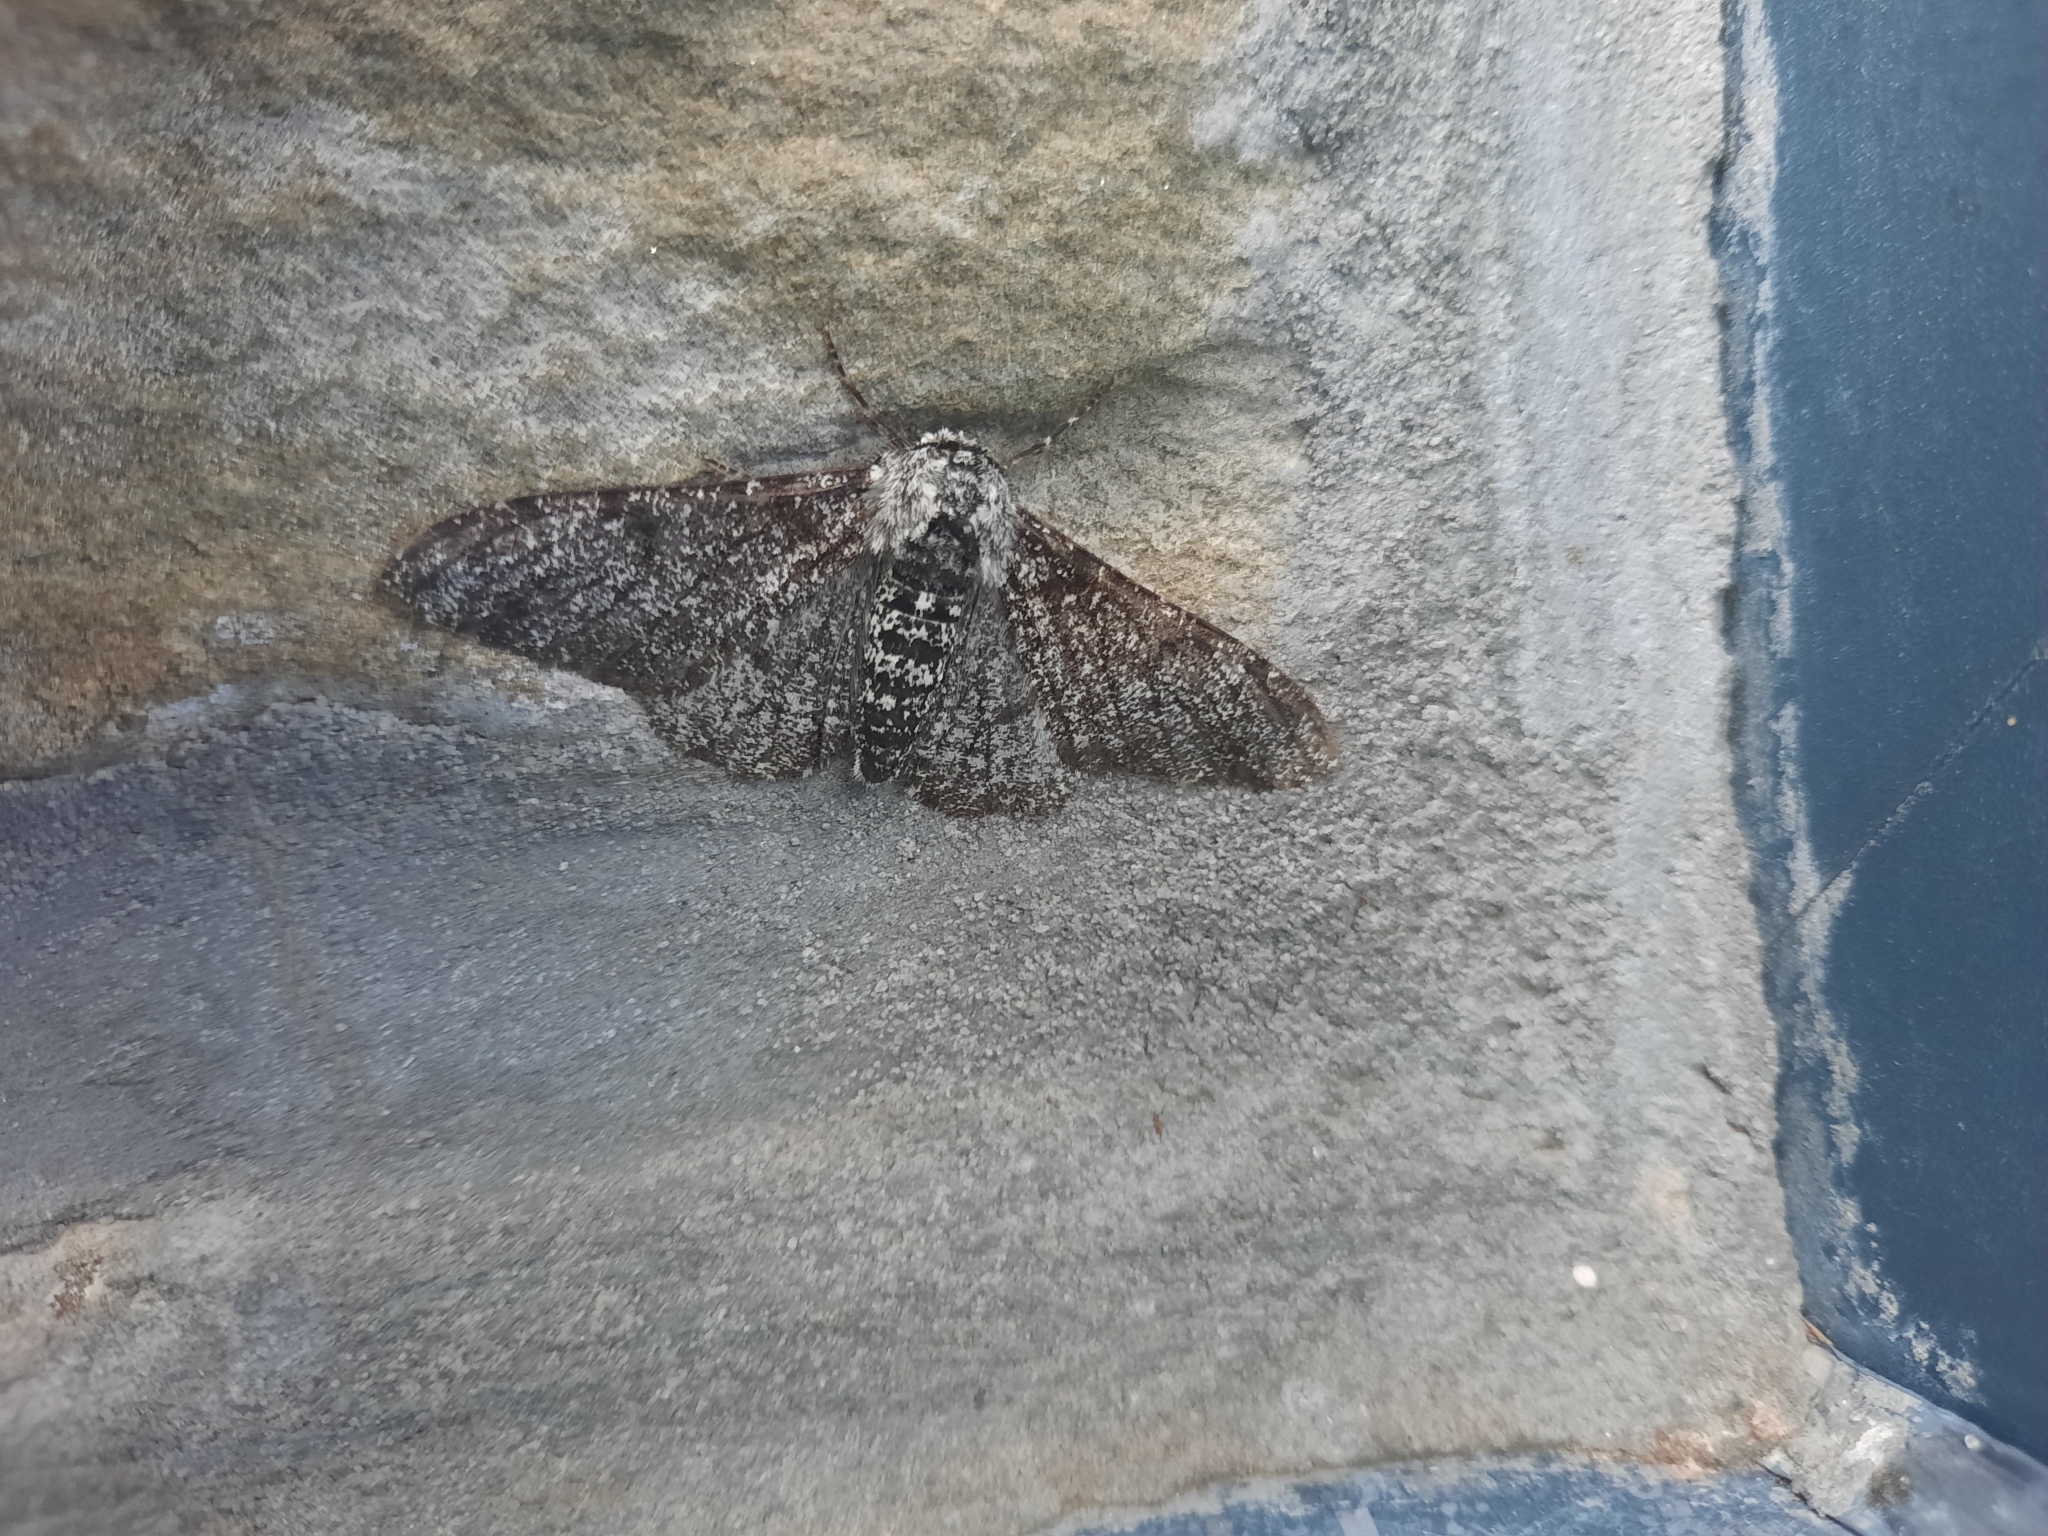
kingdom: Animalia
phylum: Arthropoda
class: Insecta
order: Lepidoptera
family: Geometridae
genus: Biston
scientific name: Biston betularia
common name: Peppered moth
